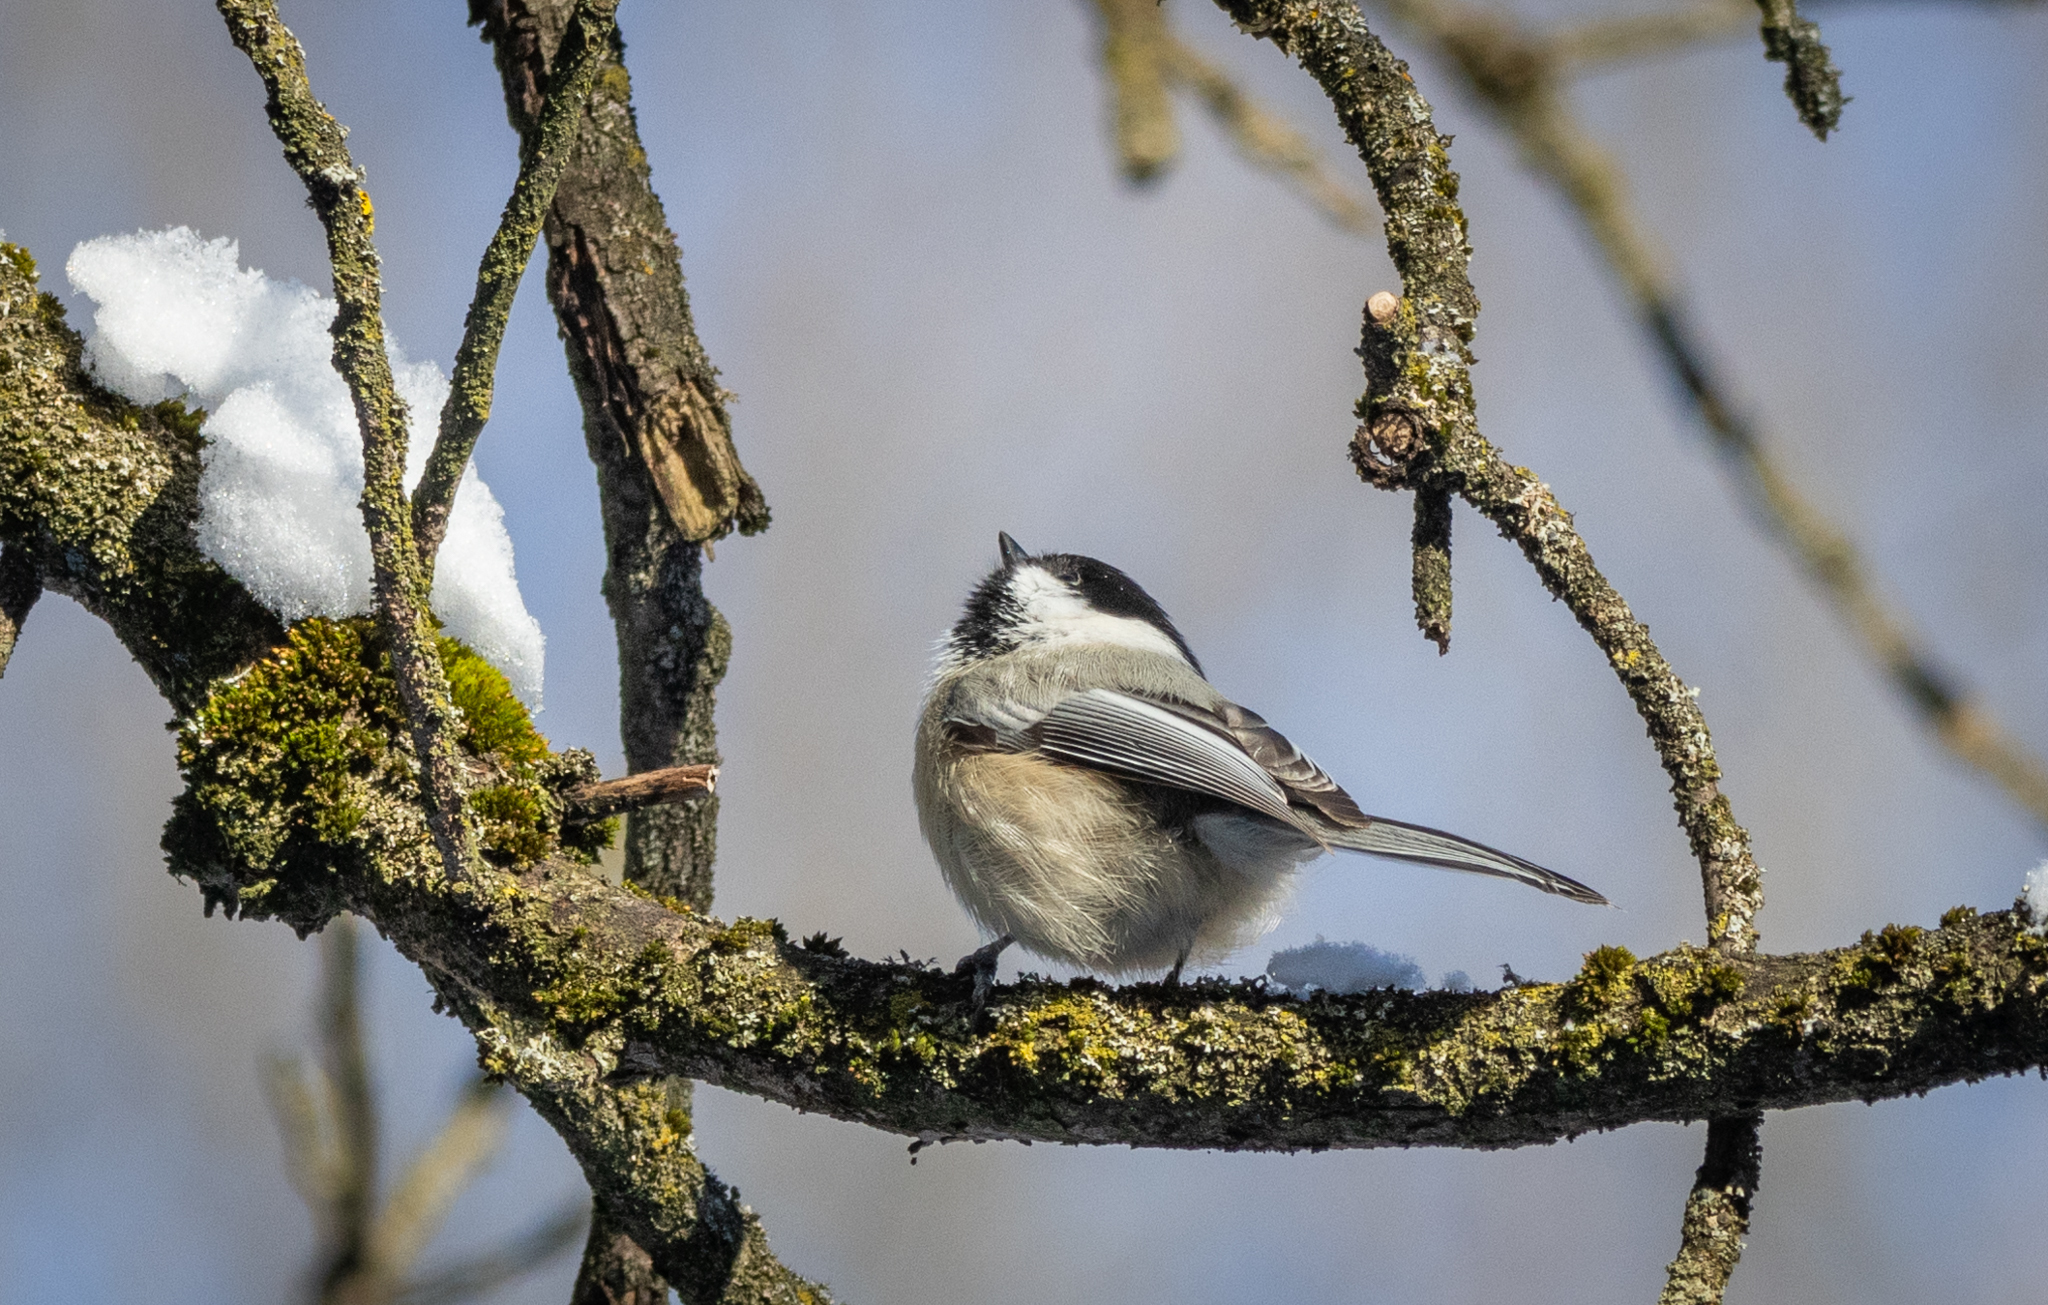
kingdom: Animalia
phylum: Chordata
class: Aves
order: Passeriformes
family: Paridae
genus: Poecile
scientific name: Poecile atricapillus
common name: Black-capped chickadee
